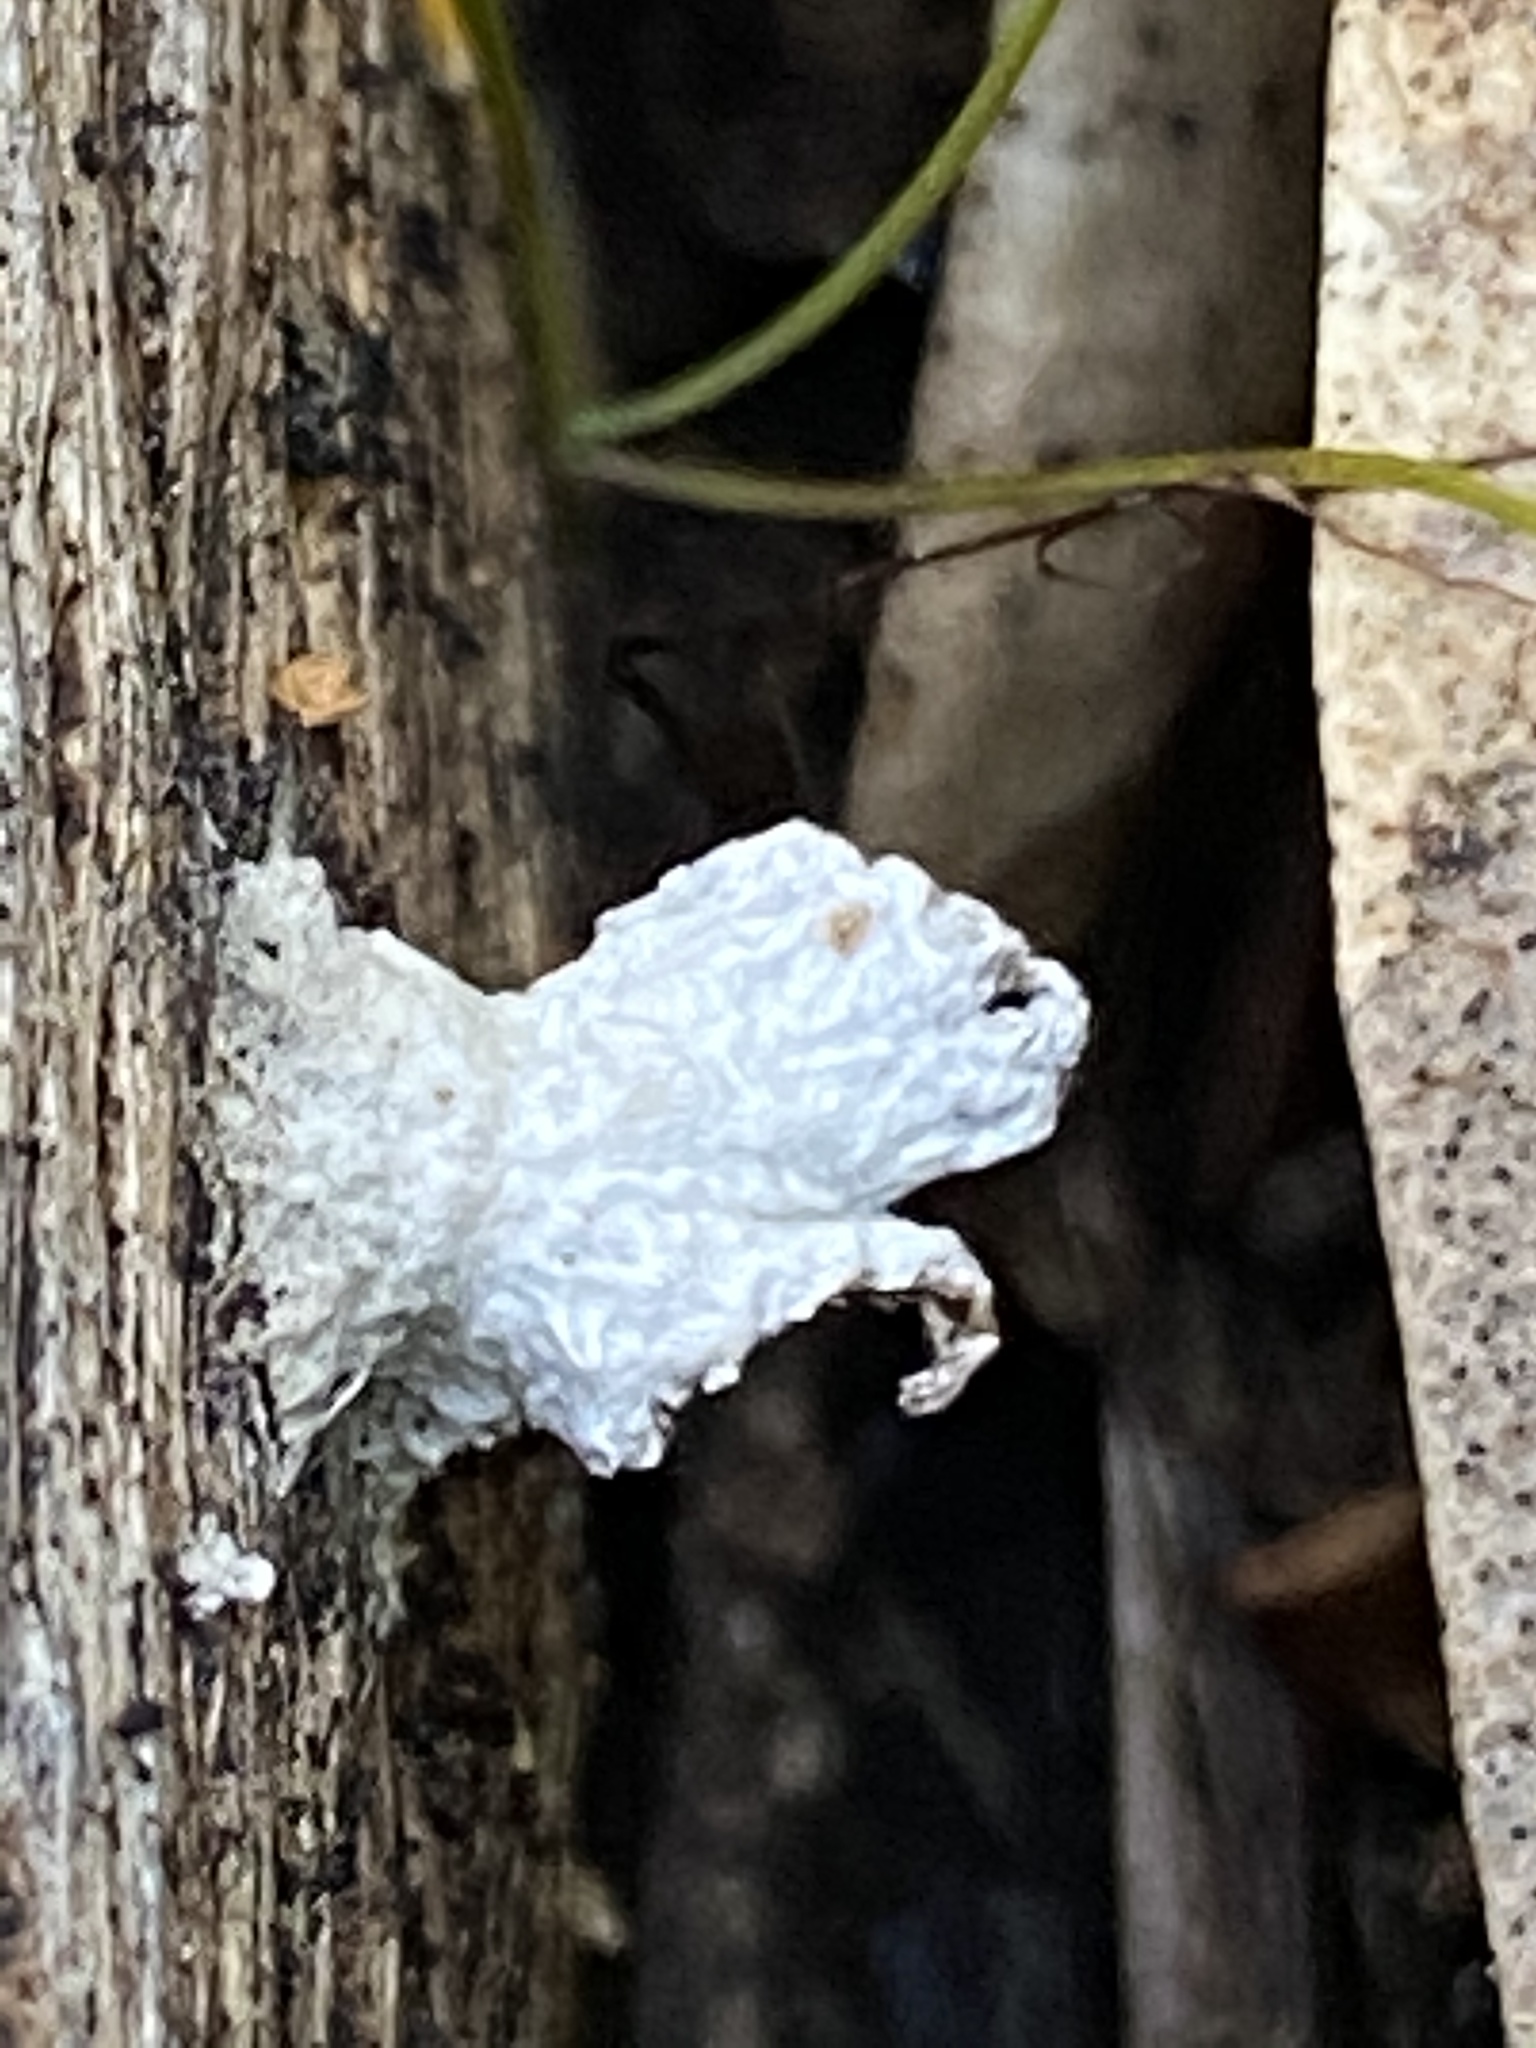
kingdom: Fungi
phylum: Basidiomycota
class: Agaricomycetes
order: Agaricales
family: Schizophyllaceae
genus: Schizophyllum
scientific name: Schizophyllum commune
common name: Common porecrust
